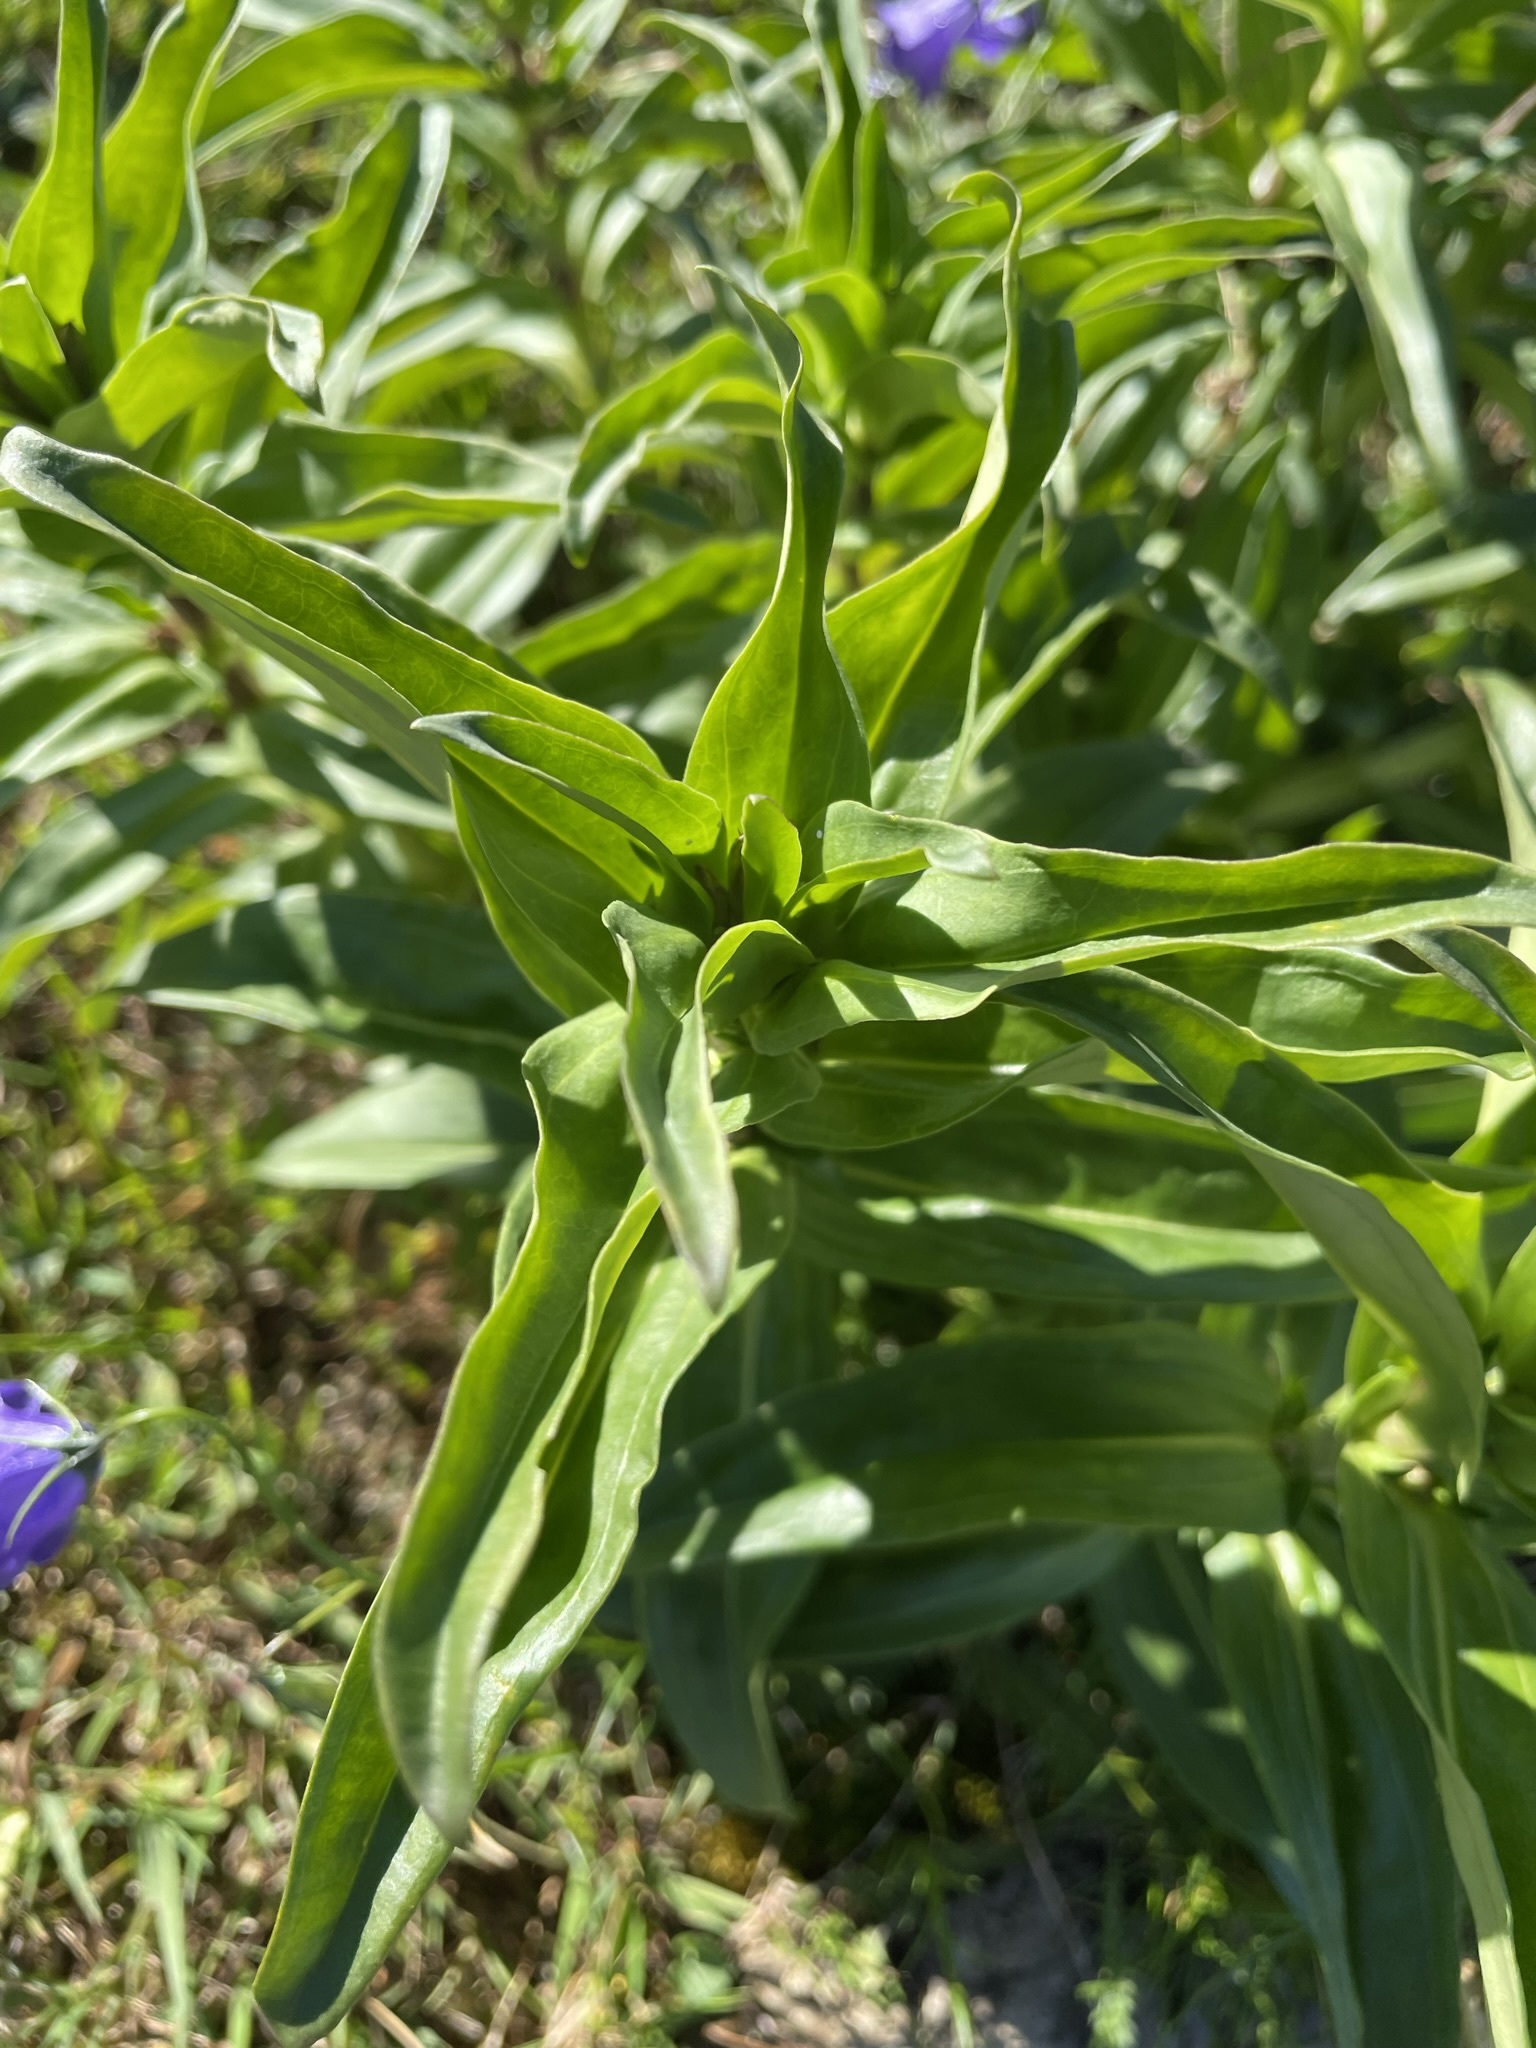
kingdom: Plantae
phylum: Tracheophyta
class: Magnoliopsida
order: Gentianales
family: Gentianaceae
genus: Gentiana
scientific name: Gentiana cruciata
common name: Cross gentian
